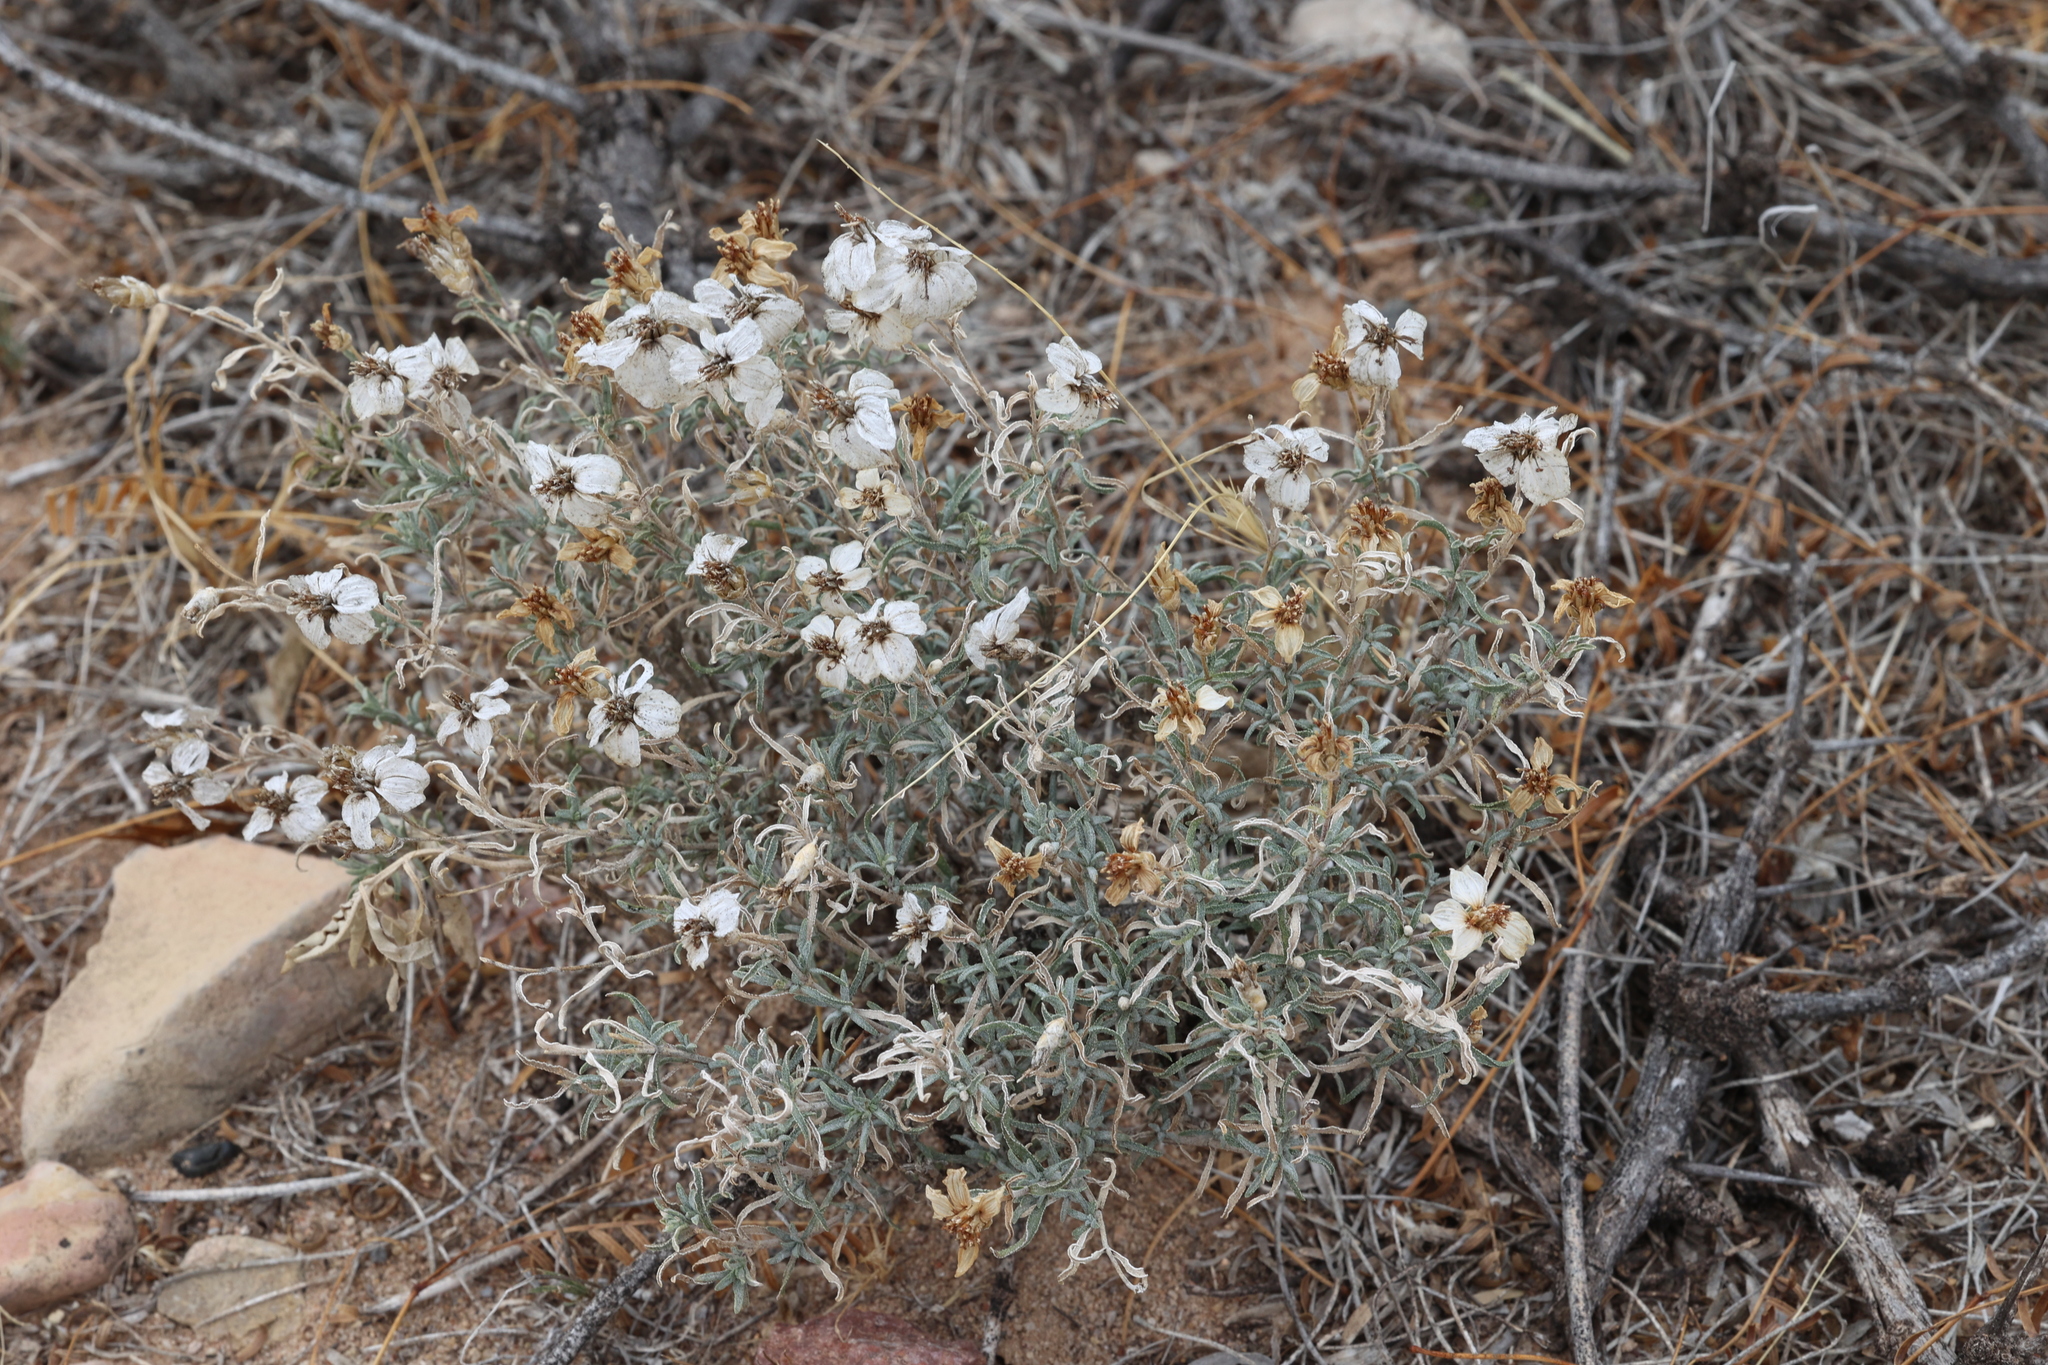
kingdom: Plantae
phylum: Tracheophyta
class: Magnoliopsida
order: Asterales
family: Asteraceae
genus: Zinnia
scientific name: Zinnia acerosa
